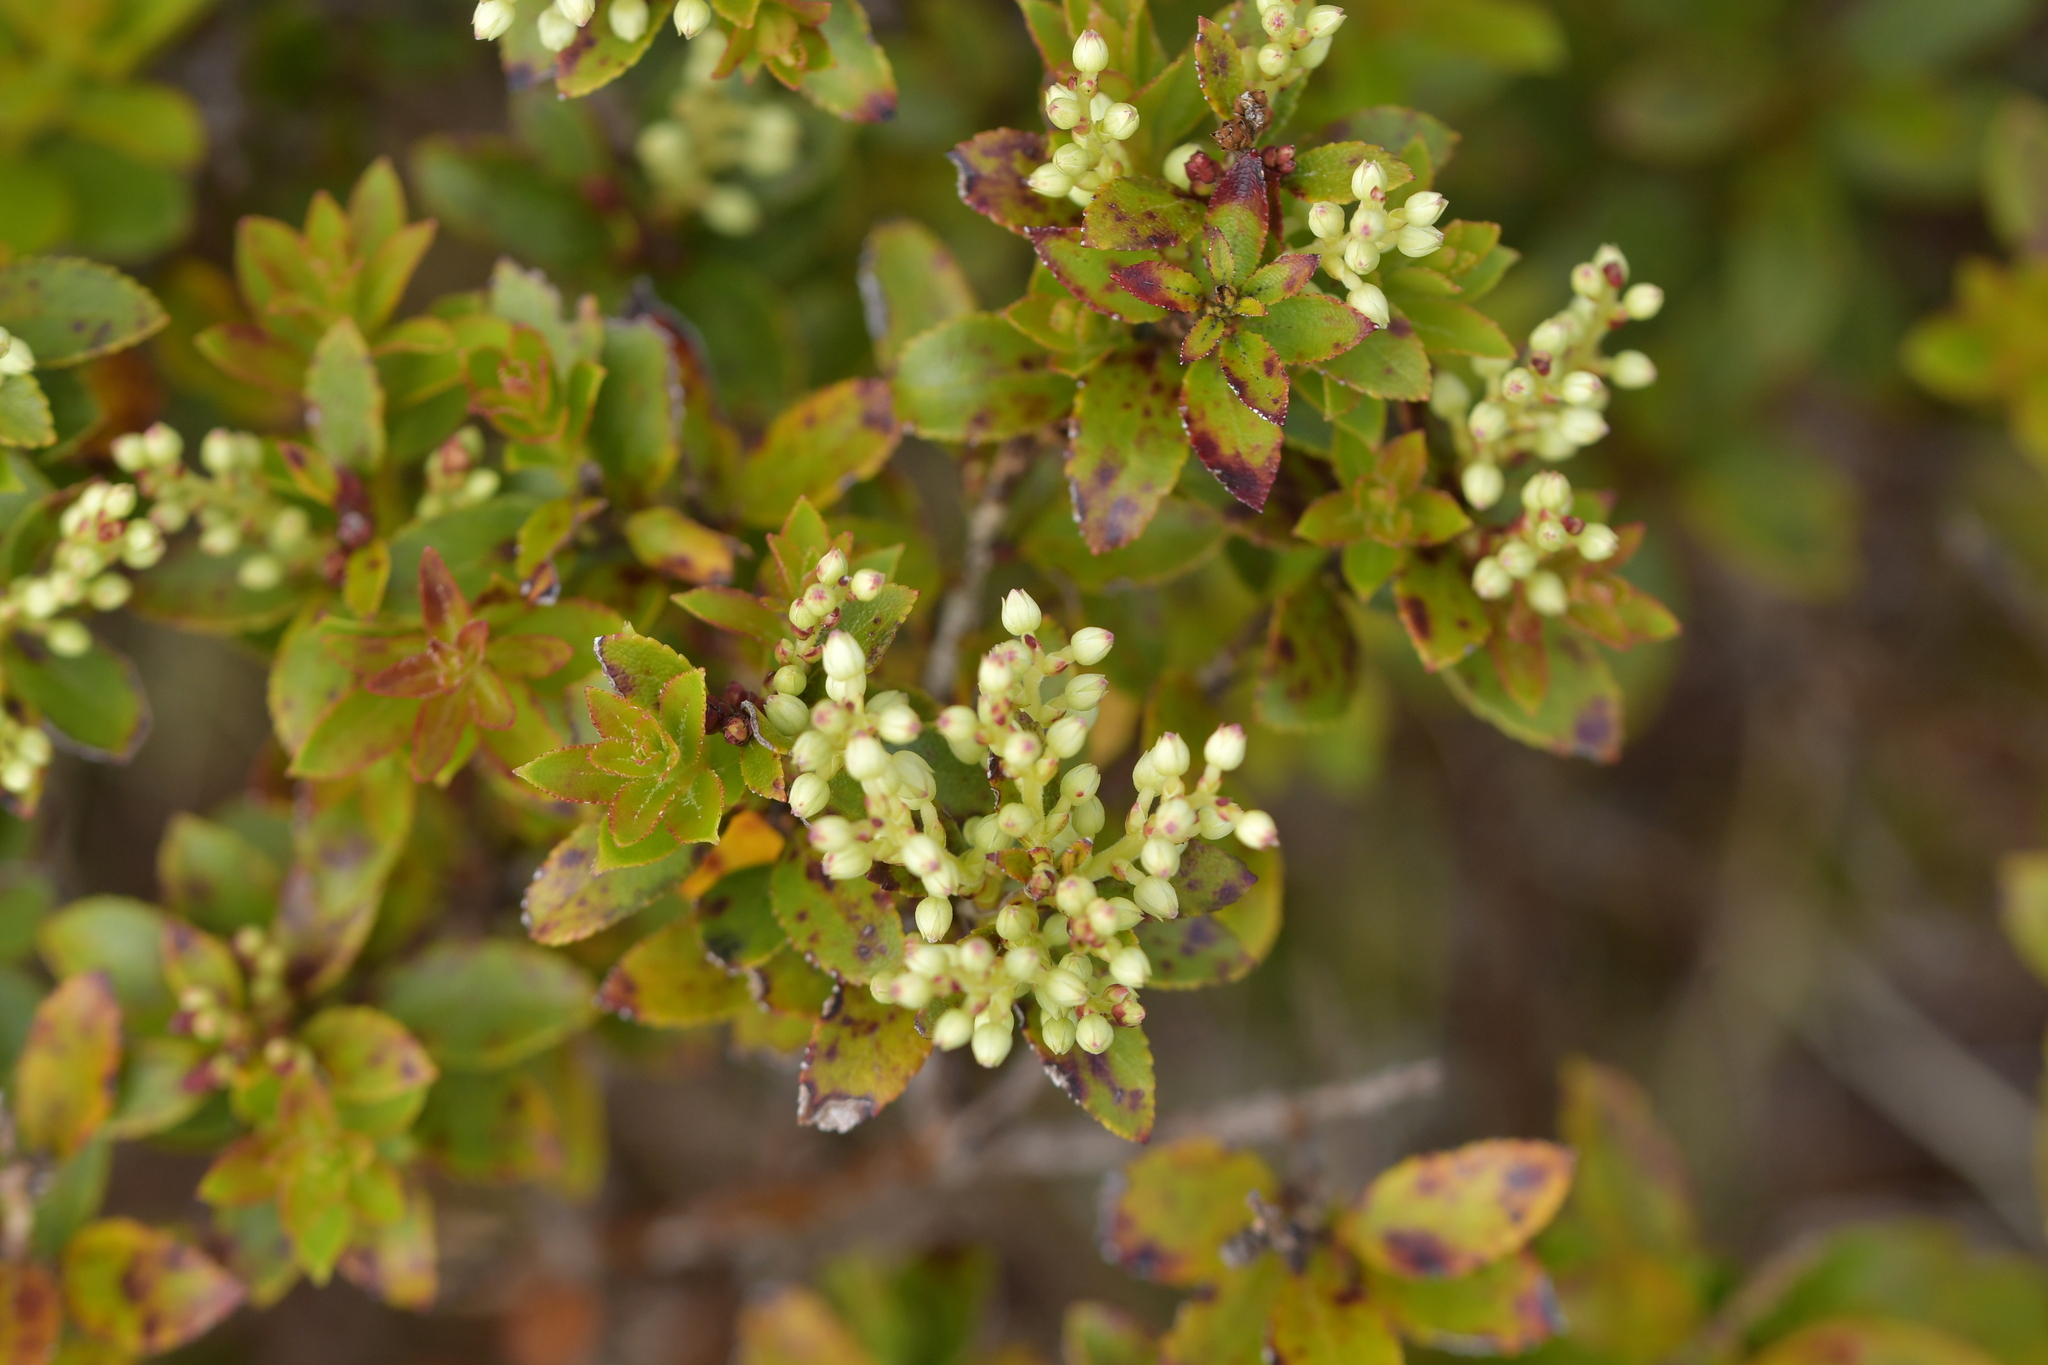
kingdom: Plantae
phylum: Tracheophyta
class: Magnoliopsida
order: Ericales
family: Ericaceae
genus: Gaultheria
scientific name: Gaultheria rupestris
